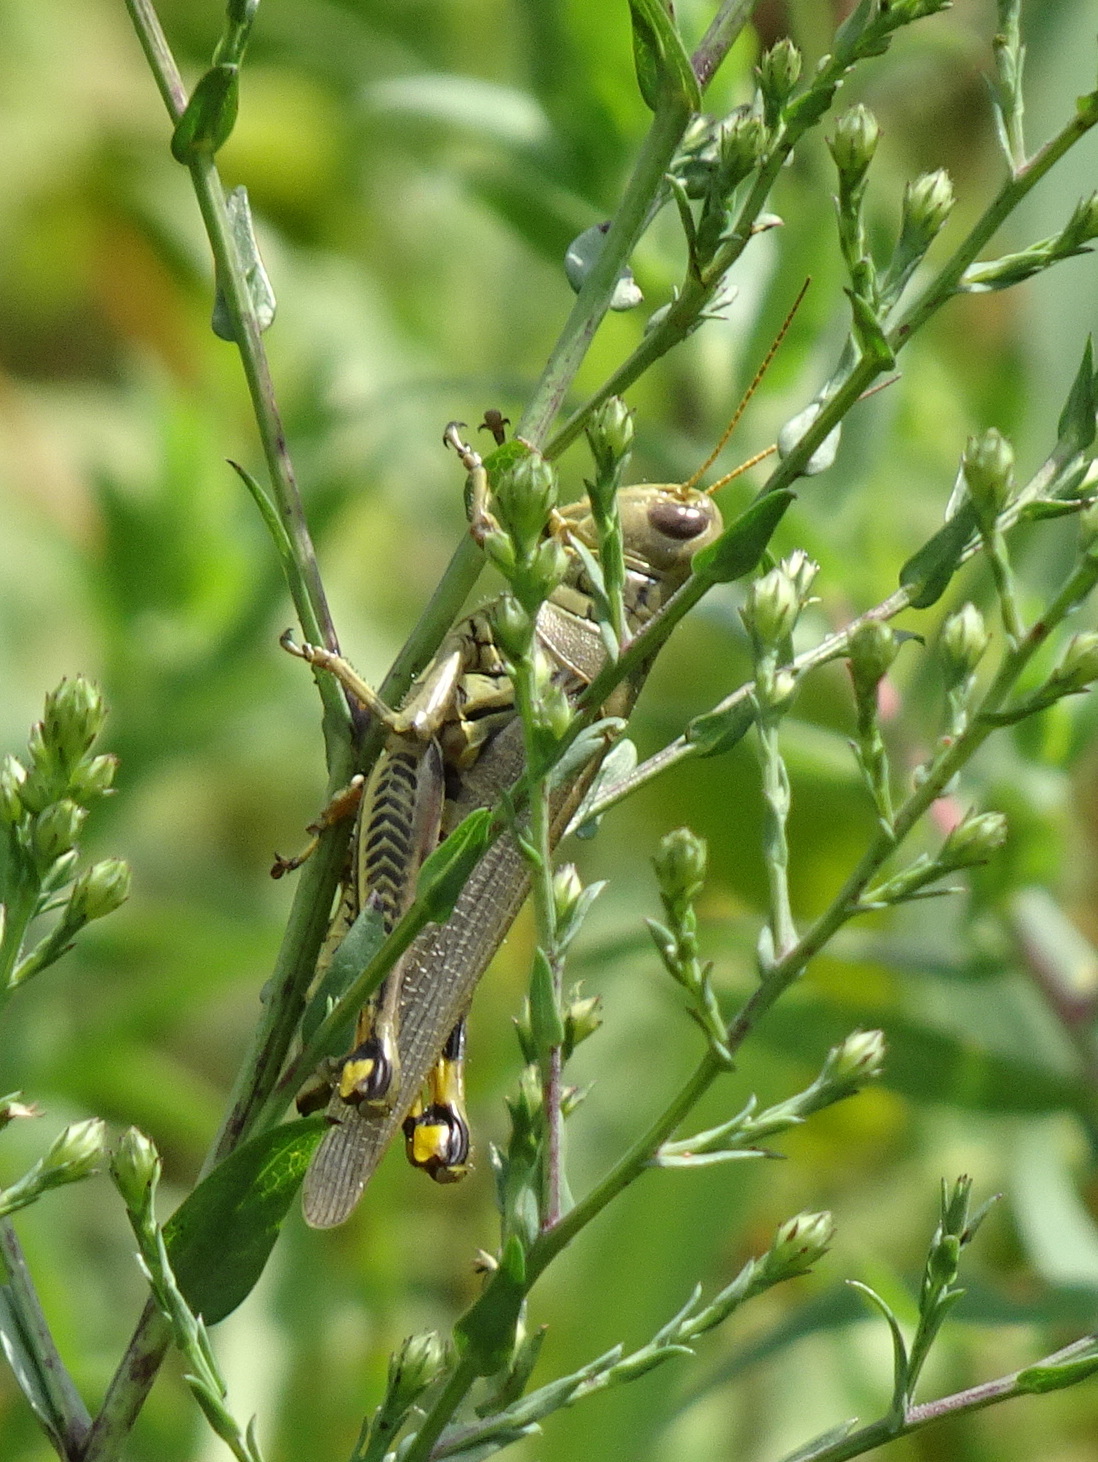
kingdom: Animalia
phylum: Arthropoda
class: Insecta
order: Orthoptera
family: Acrididae
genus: Melanoplus
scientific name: Melanoplus differentialis
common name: Differential grasshopper
